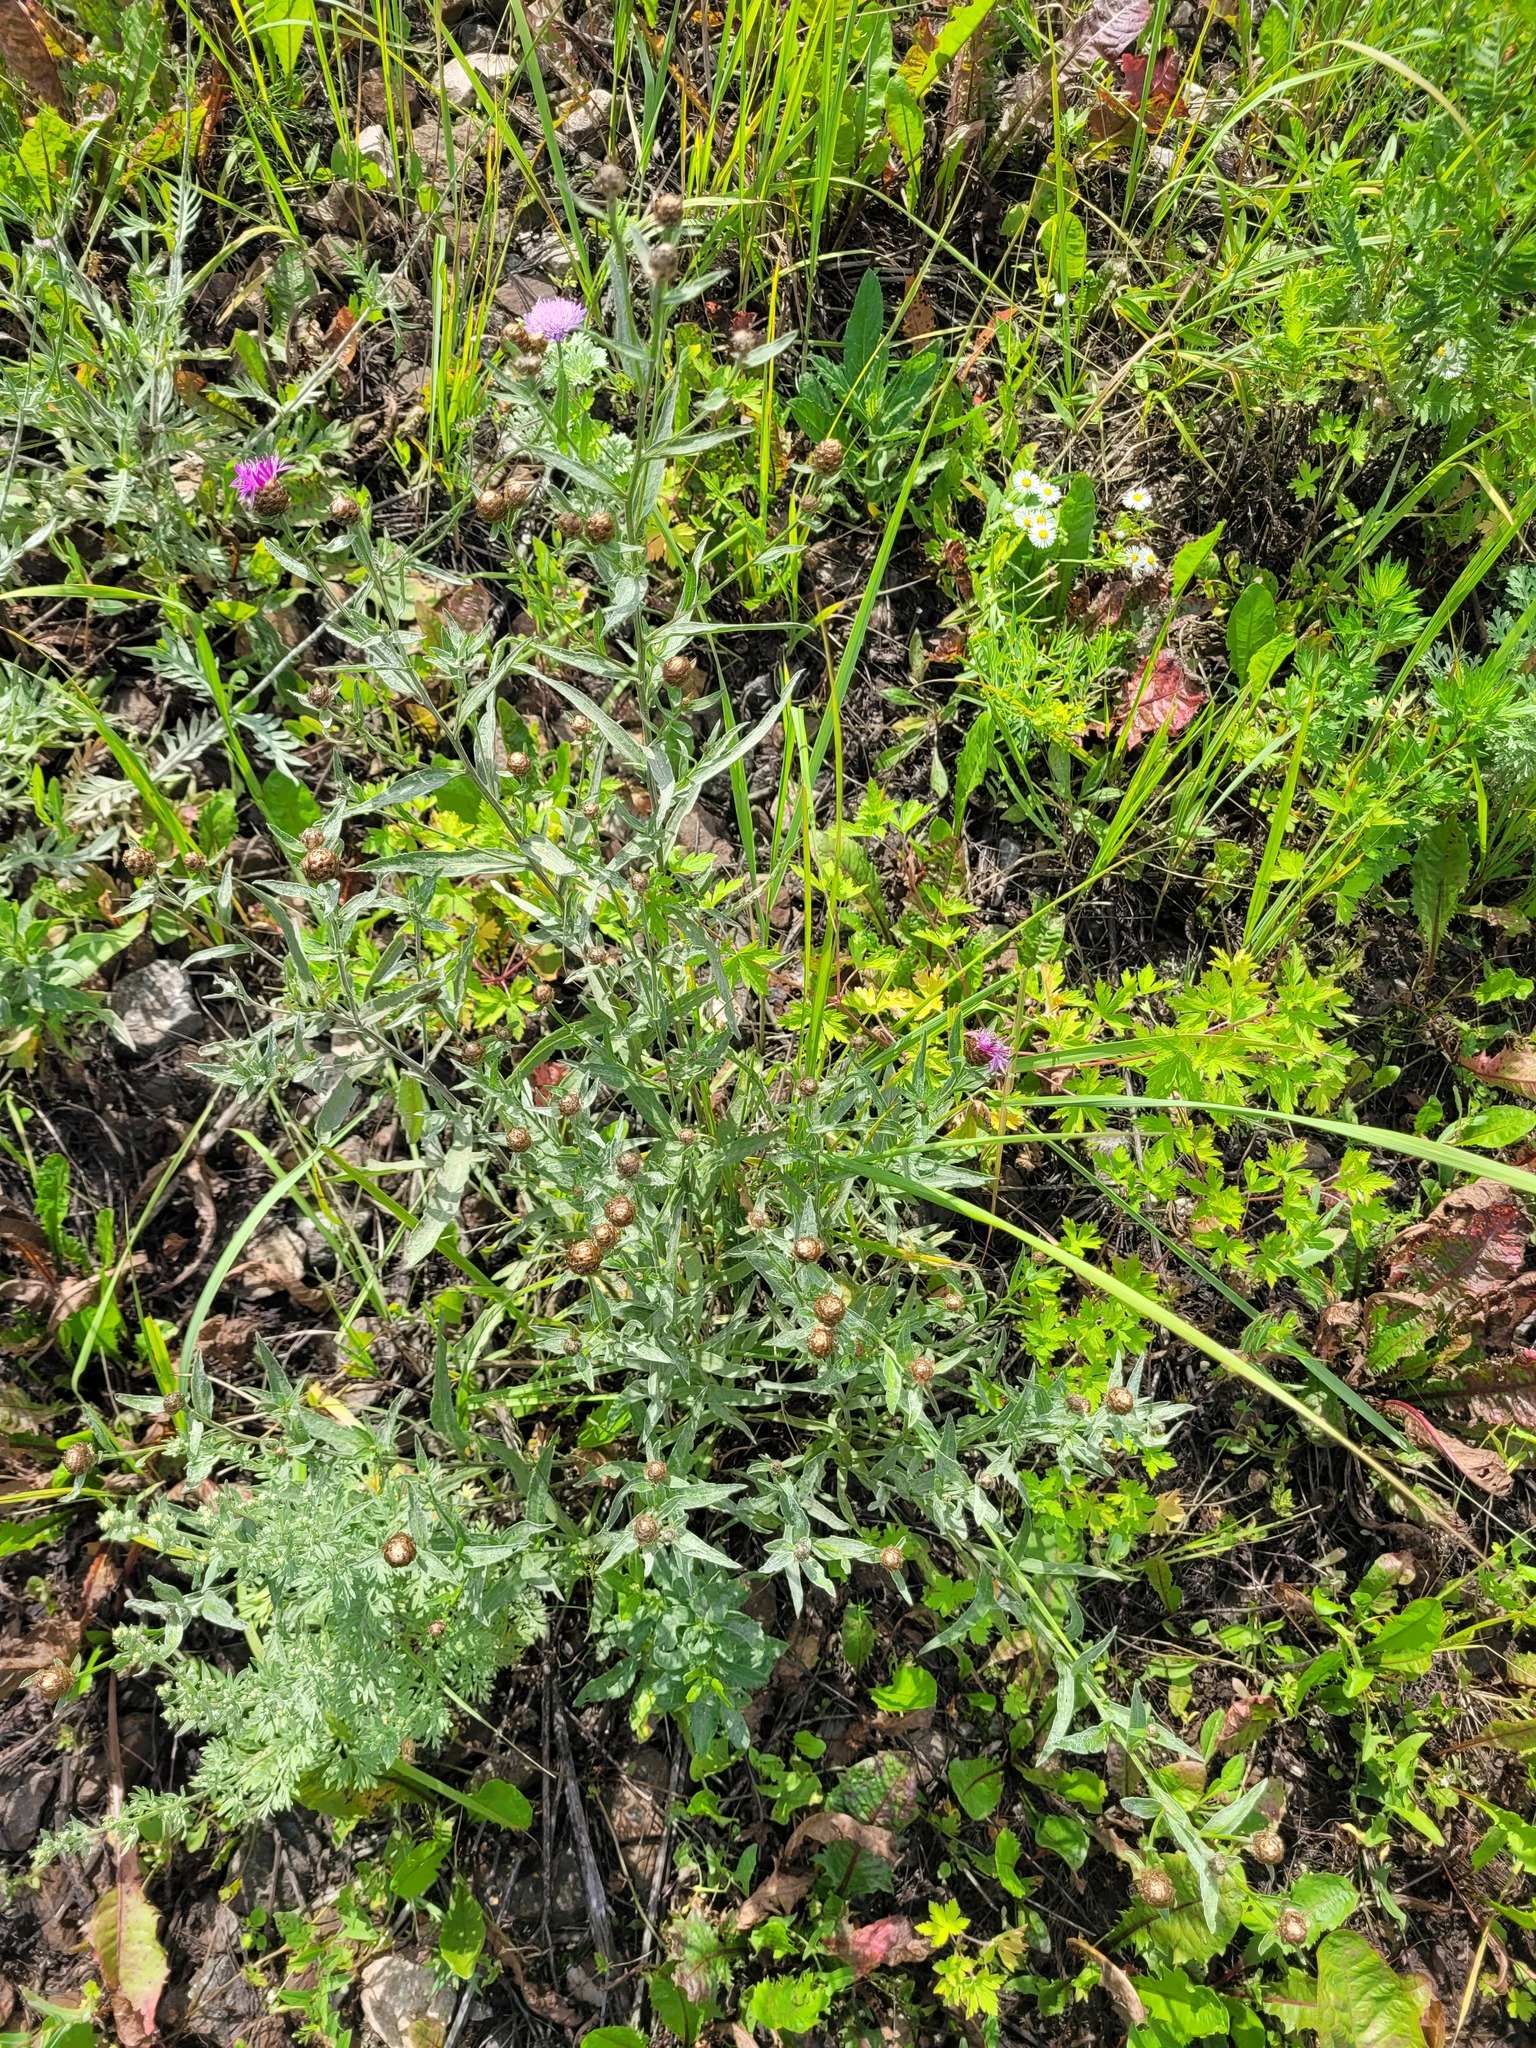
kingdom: Plantae
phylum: Tracheophyta
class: Magnoliopsida
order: Asterales
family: Asteraceae
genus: Centaurea
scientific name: Centaurea jacea
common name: Brown knapweed
